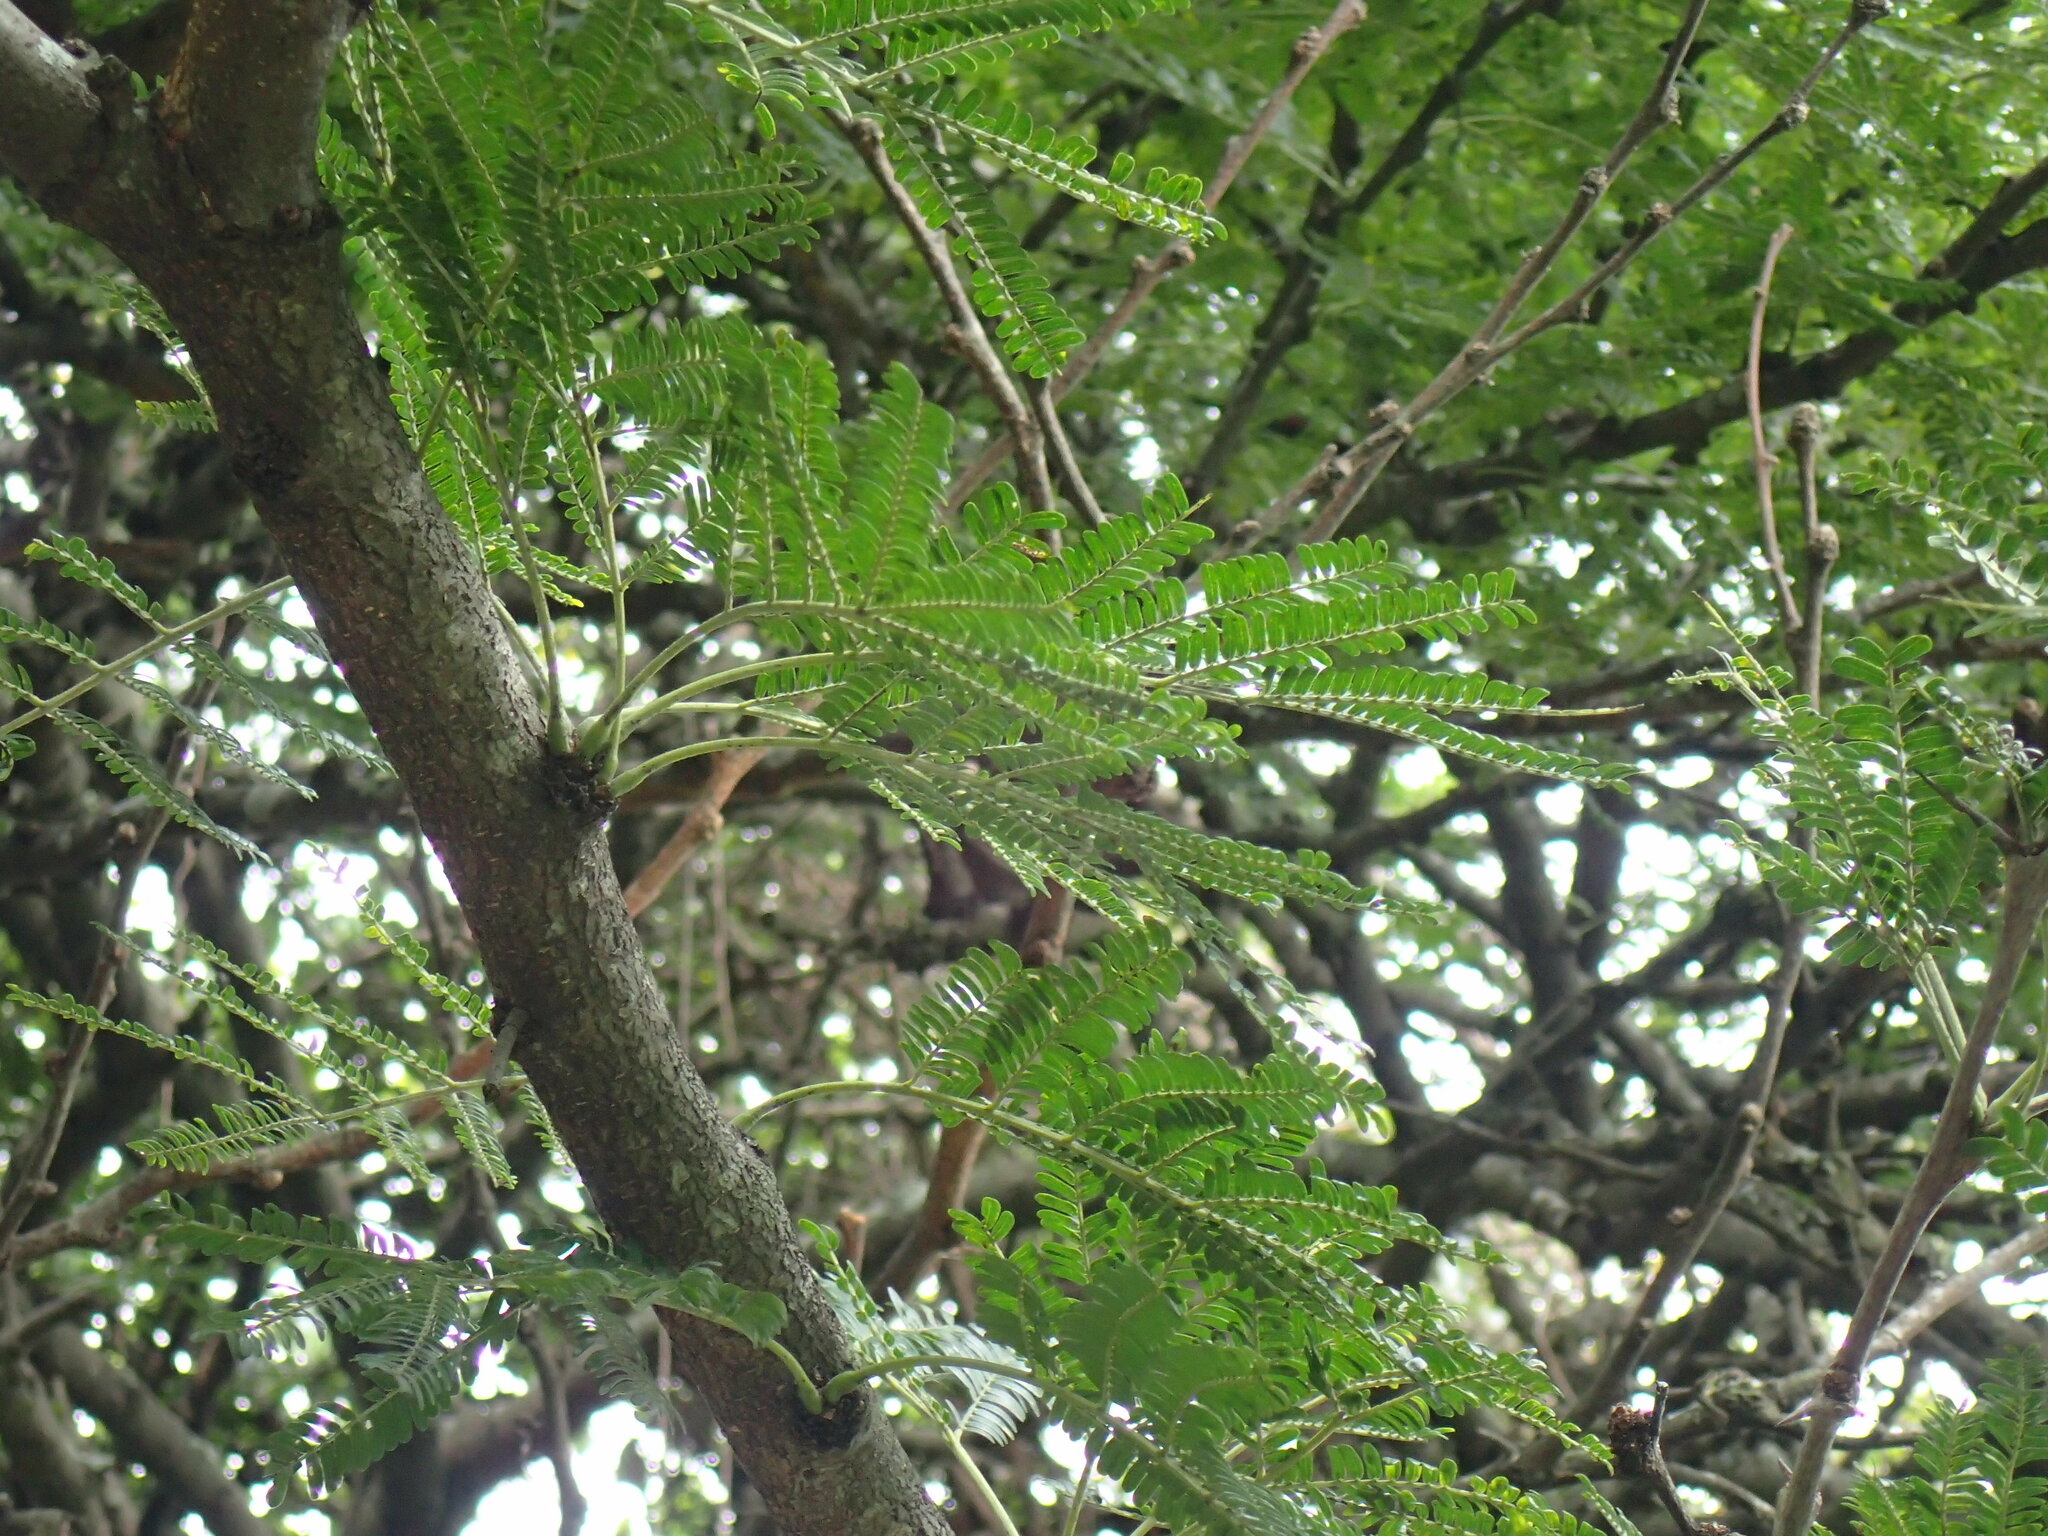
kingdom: Plantae
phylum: Tracheophyta
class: Magnoliopsida
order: Fabales
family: Fabaceae
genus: Vachellia
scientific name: Vachellia robusta
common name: Ankle thorn
